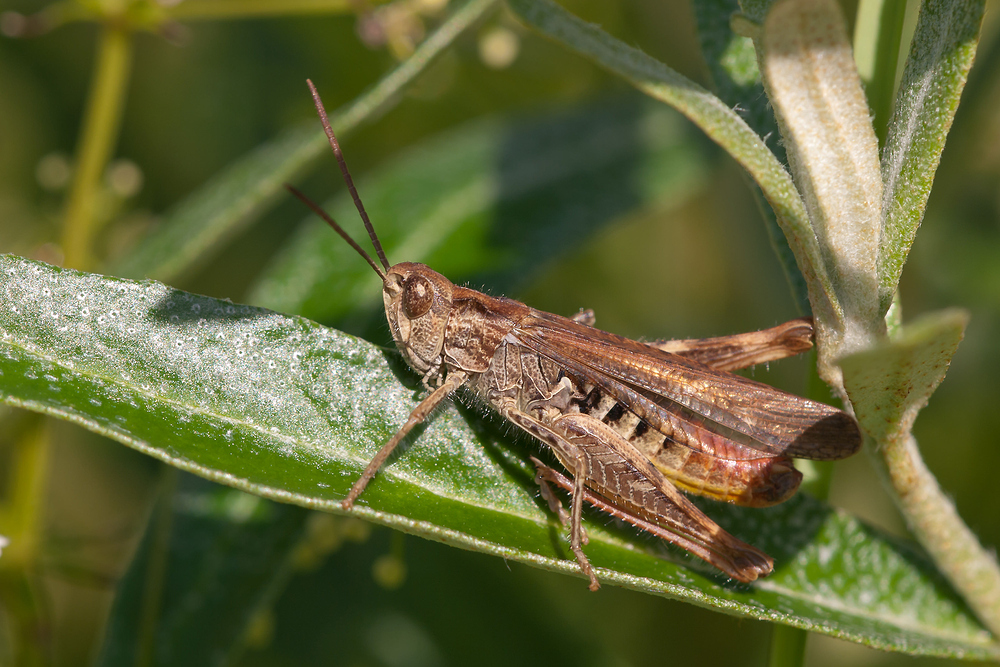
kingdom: Animalia
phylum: Arthropoda
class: Insecta
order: Orthoptera
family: Acrididae
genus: Chorthippus
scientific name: Chorthippus biguttulus
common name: Bow-winged grasshopper
